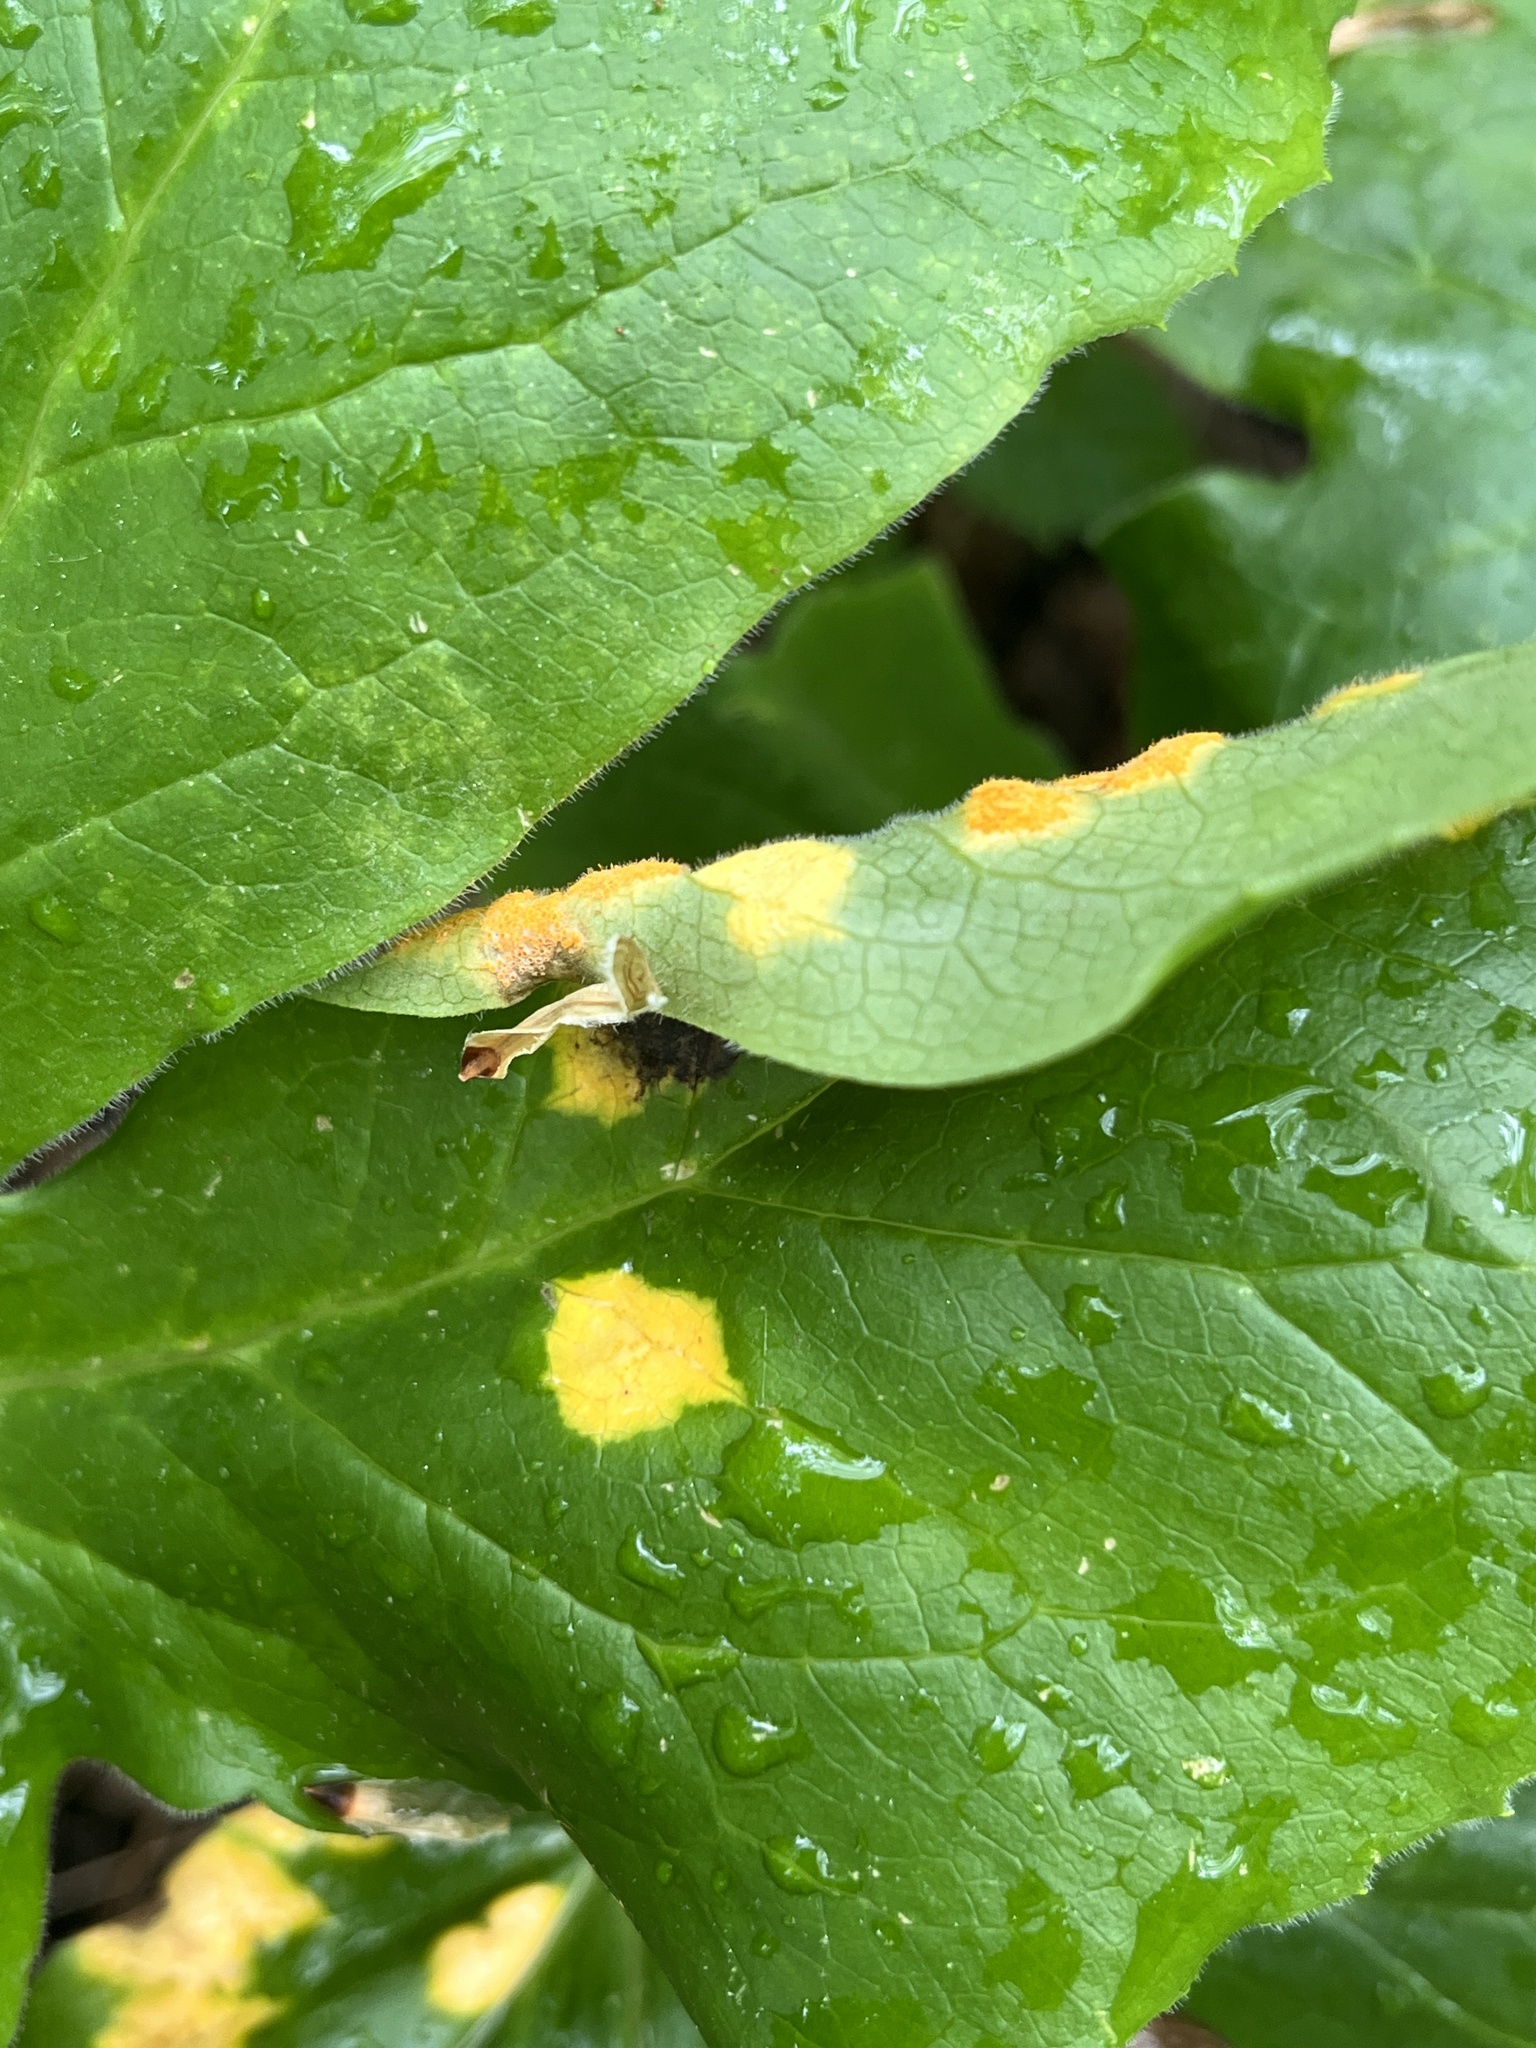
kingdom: Fungi
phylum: Basidiomycota
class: Pucciniomycetes
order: Pucciniales
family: Pucciniaceae
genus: Puccinia
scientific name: Puccinia podophylli
